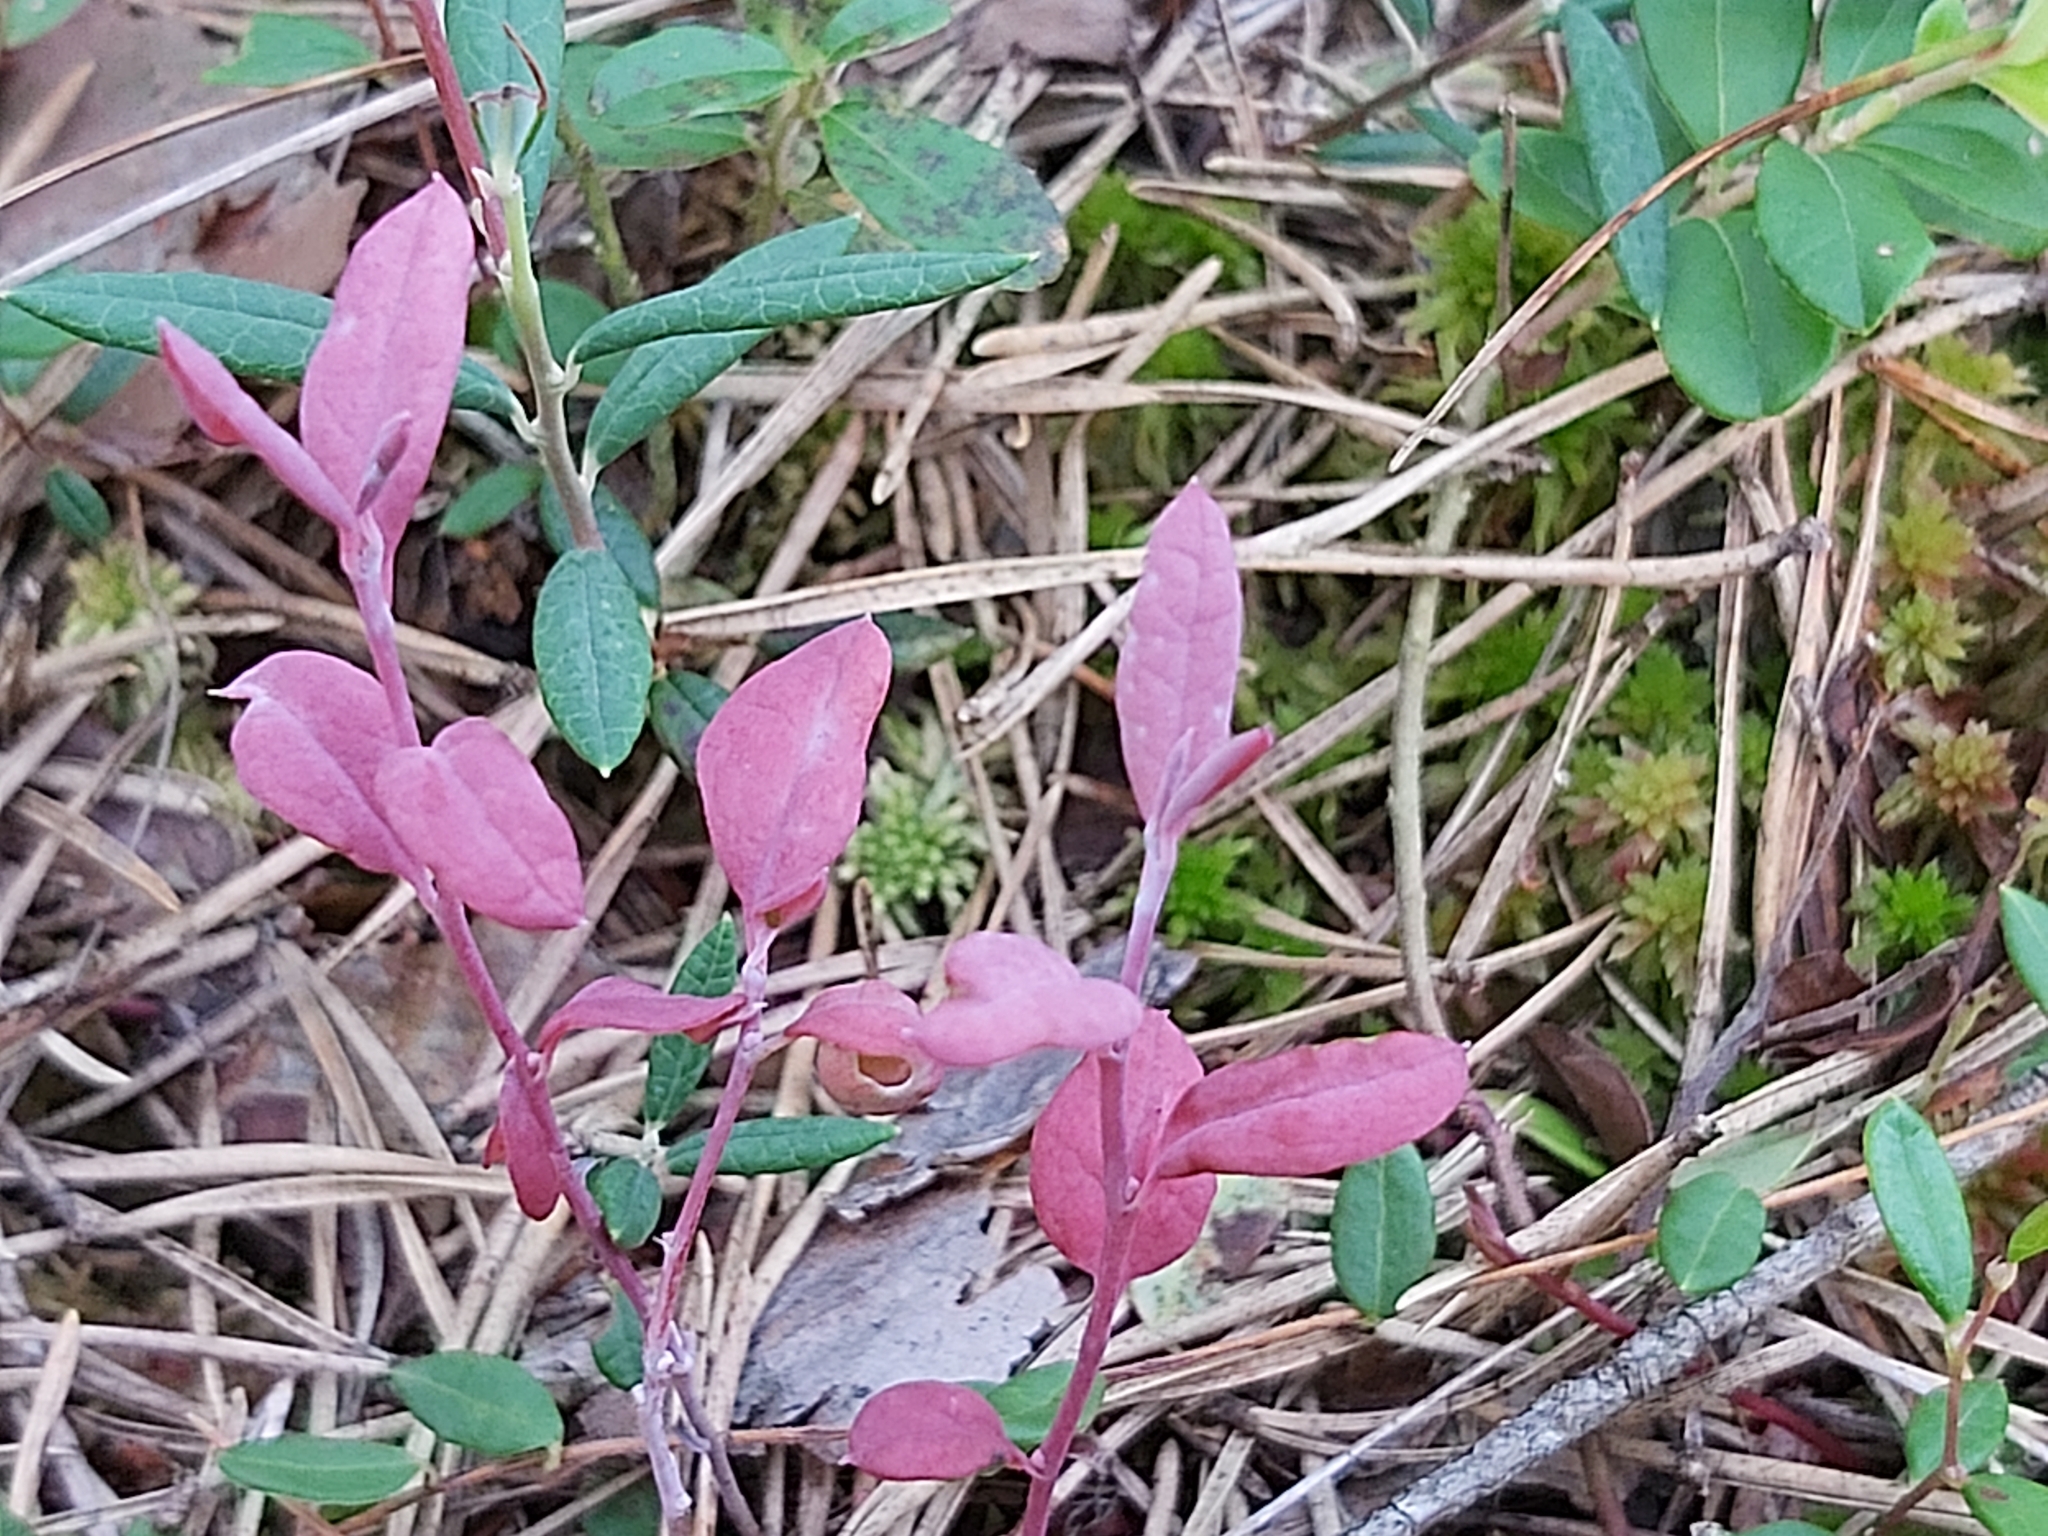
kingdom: Fungi
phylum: Basidiomycota
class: Exobasidiomycetes
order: Exobasidiales
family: Exobasidiaceae
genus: Exobasidium
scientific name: Exobasidium karstenii
